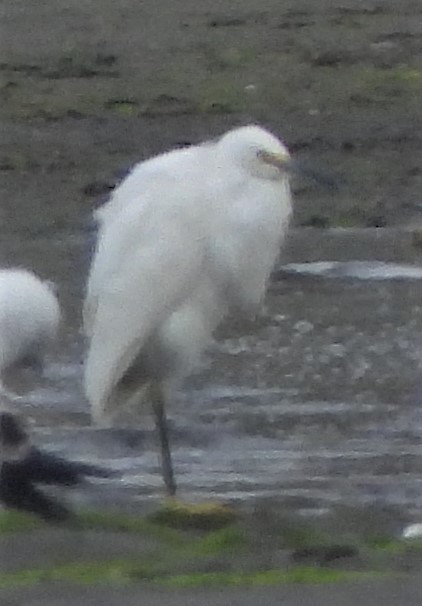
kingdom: Animalia
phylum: Chordata
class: Aves
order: Pelecaniformes
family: Ardeidae
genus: Egretta
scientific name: Egretta thula
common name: Snowy egret
